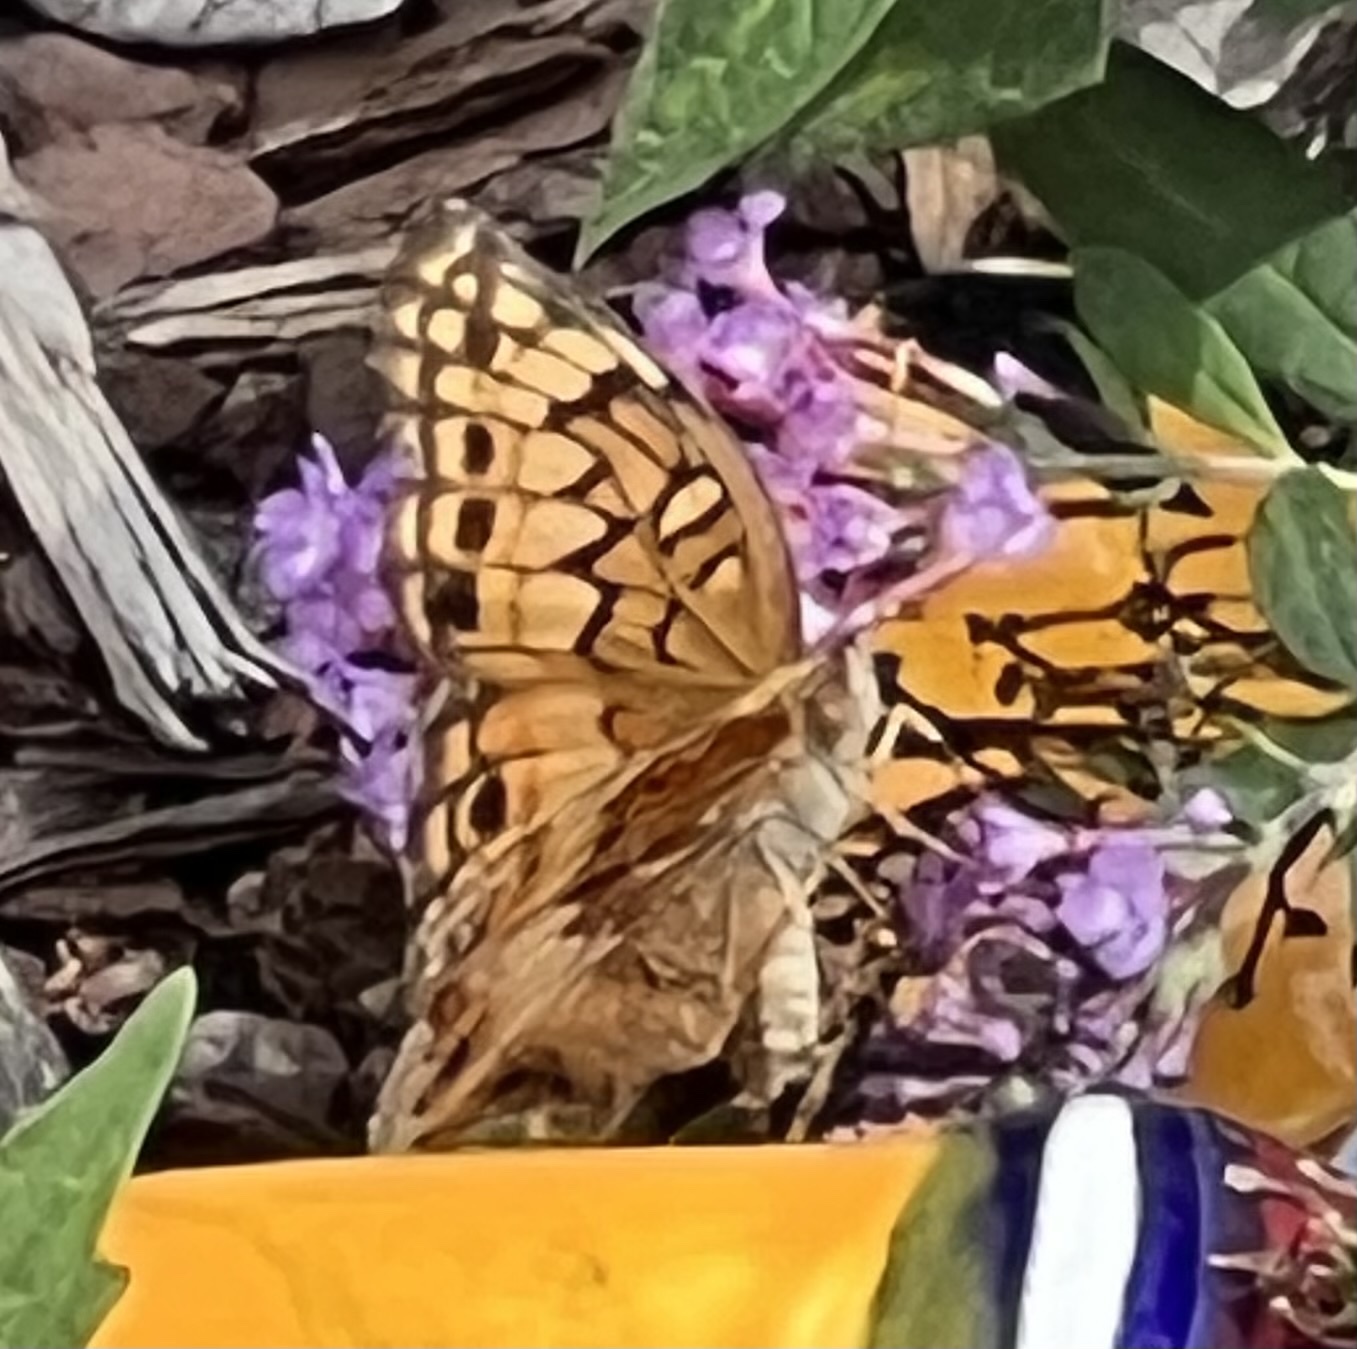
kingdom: Animalia
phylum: Arthropoda
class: Insecta
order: Lepidoptera
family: Nymphalidae
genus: Euptoieta
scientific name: Euptoieta claudia
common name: Variegated fritillary
